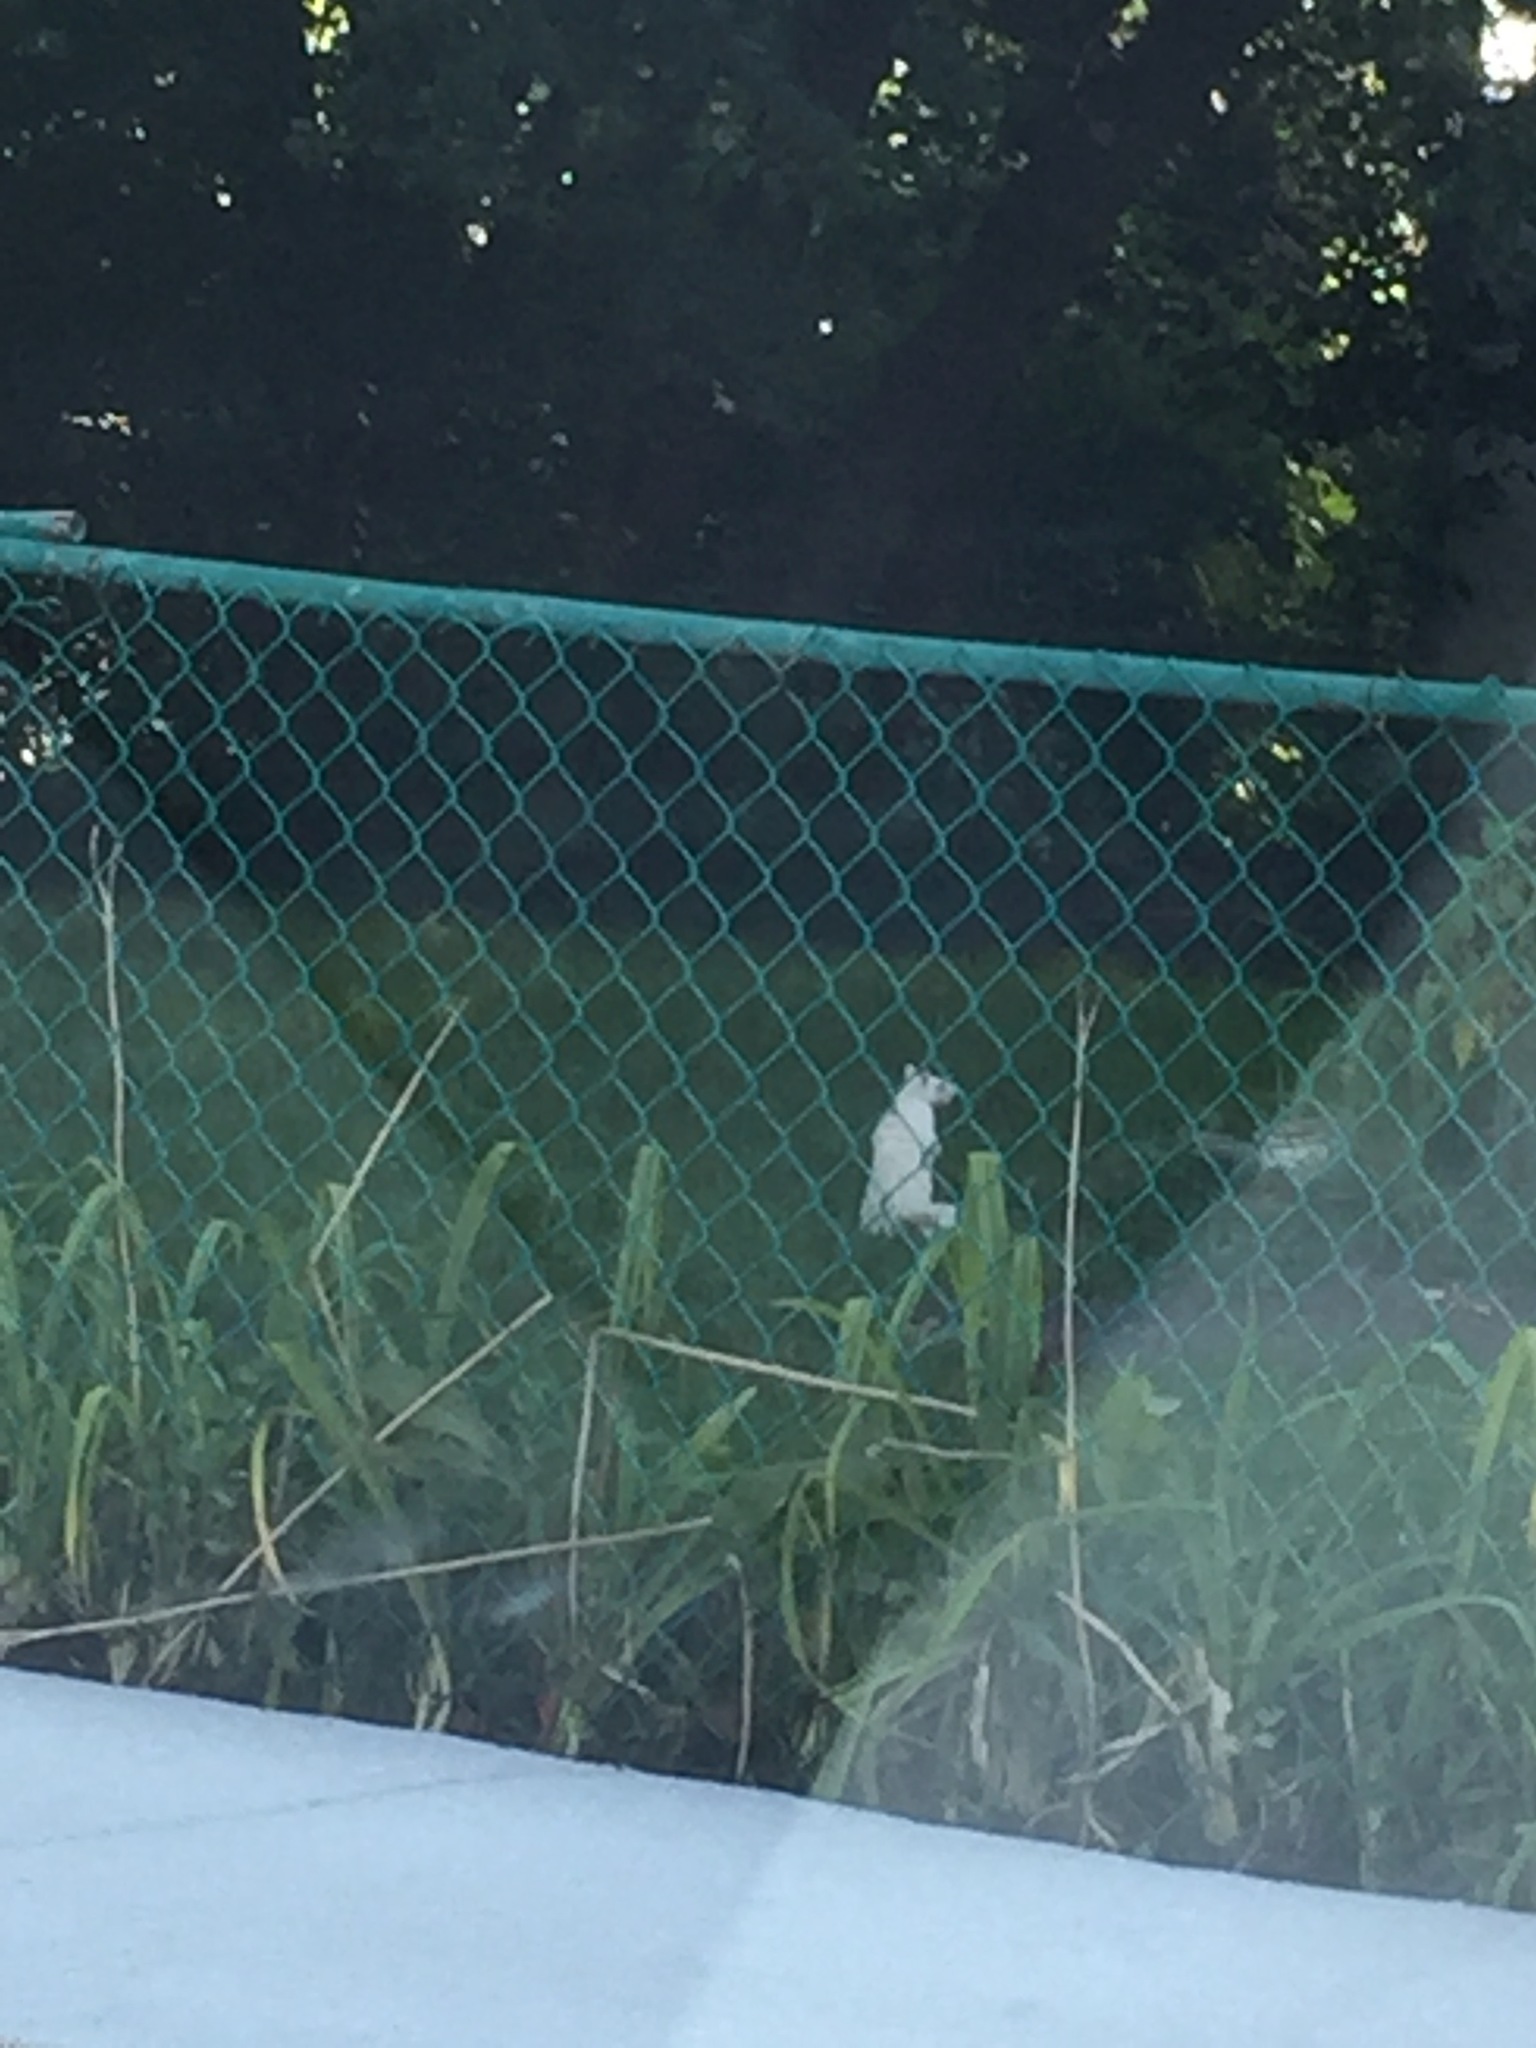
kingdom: Animalia
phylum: Chordata
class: Mammalia
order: Rodentia
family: Sciuridae
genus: Sciurus
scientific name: Sciurus carolinensis
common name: Eastern gray squirrel
